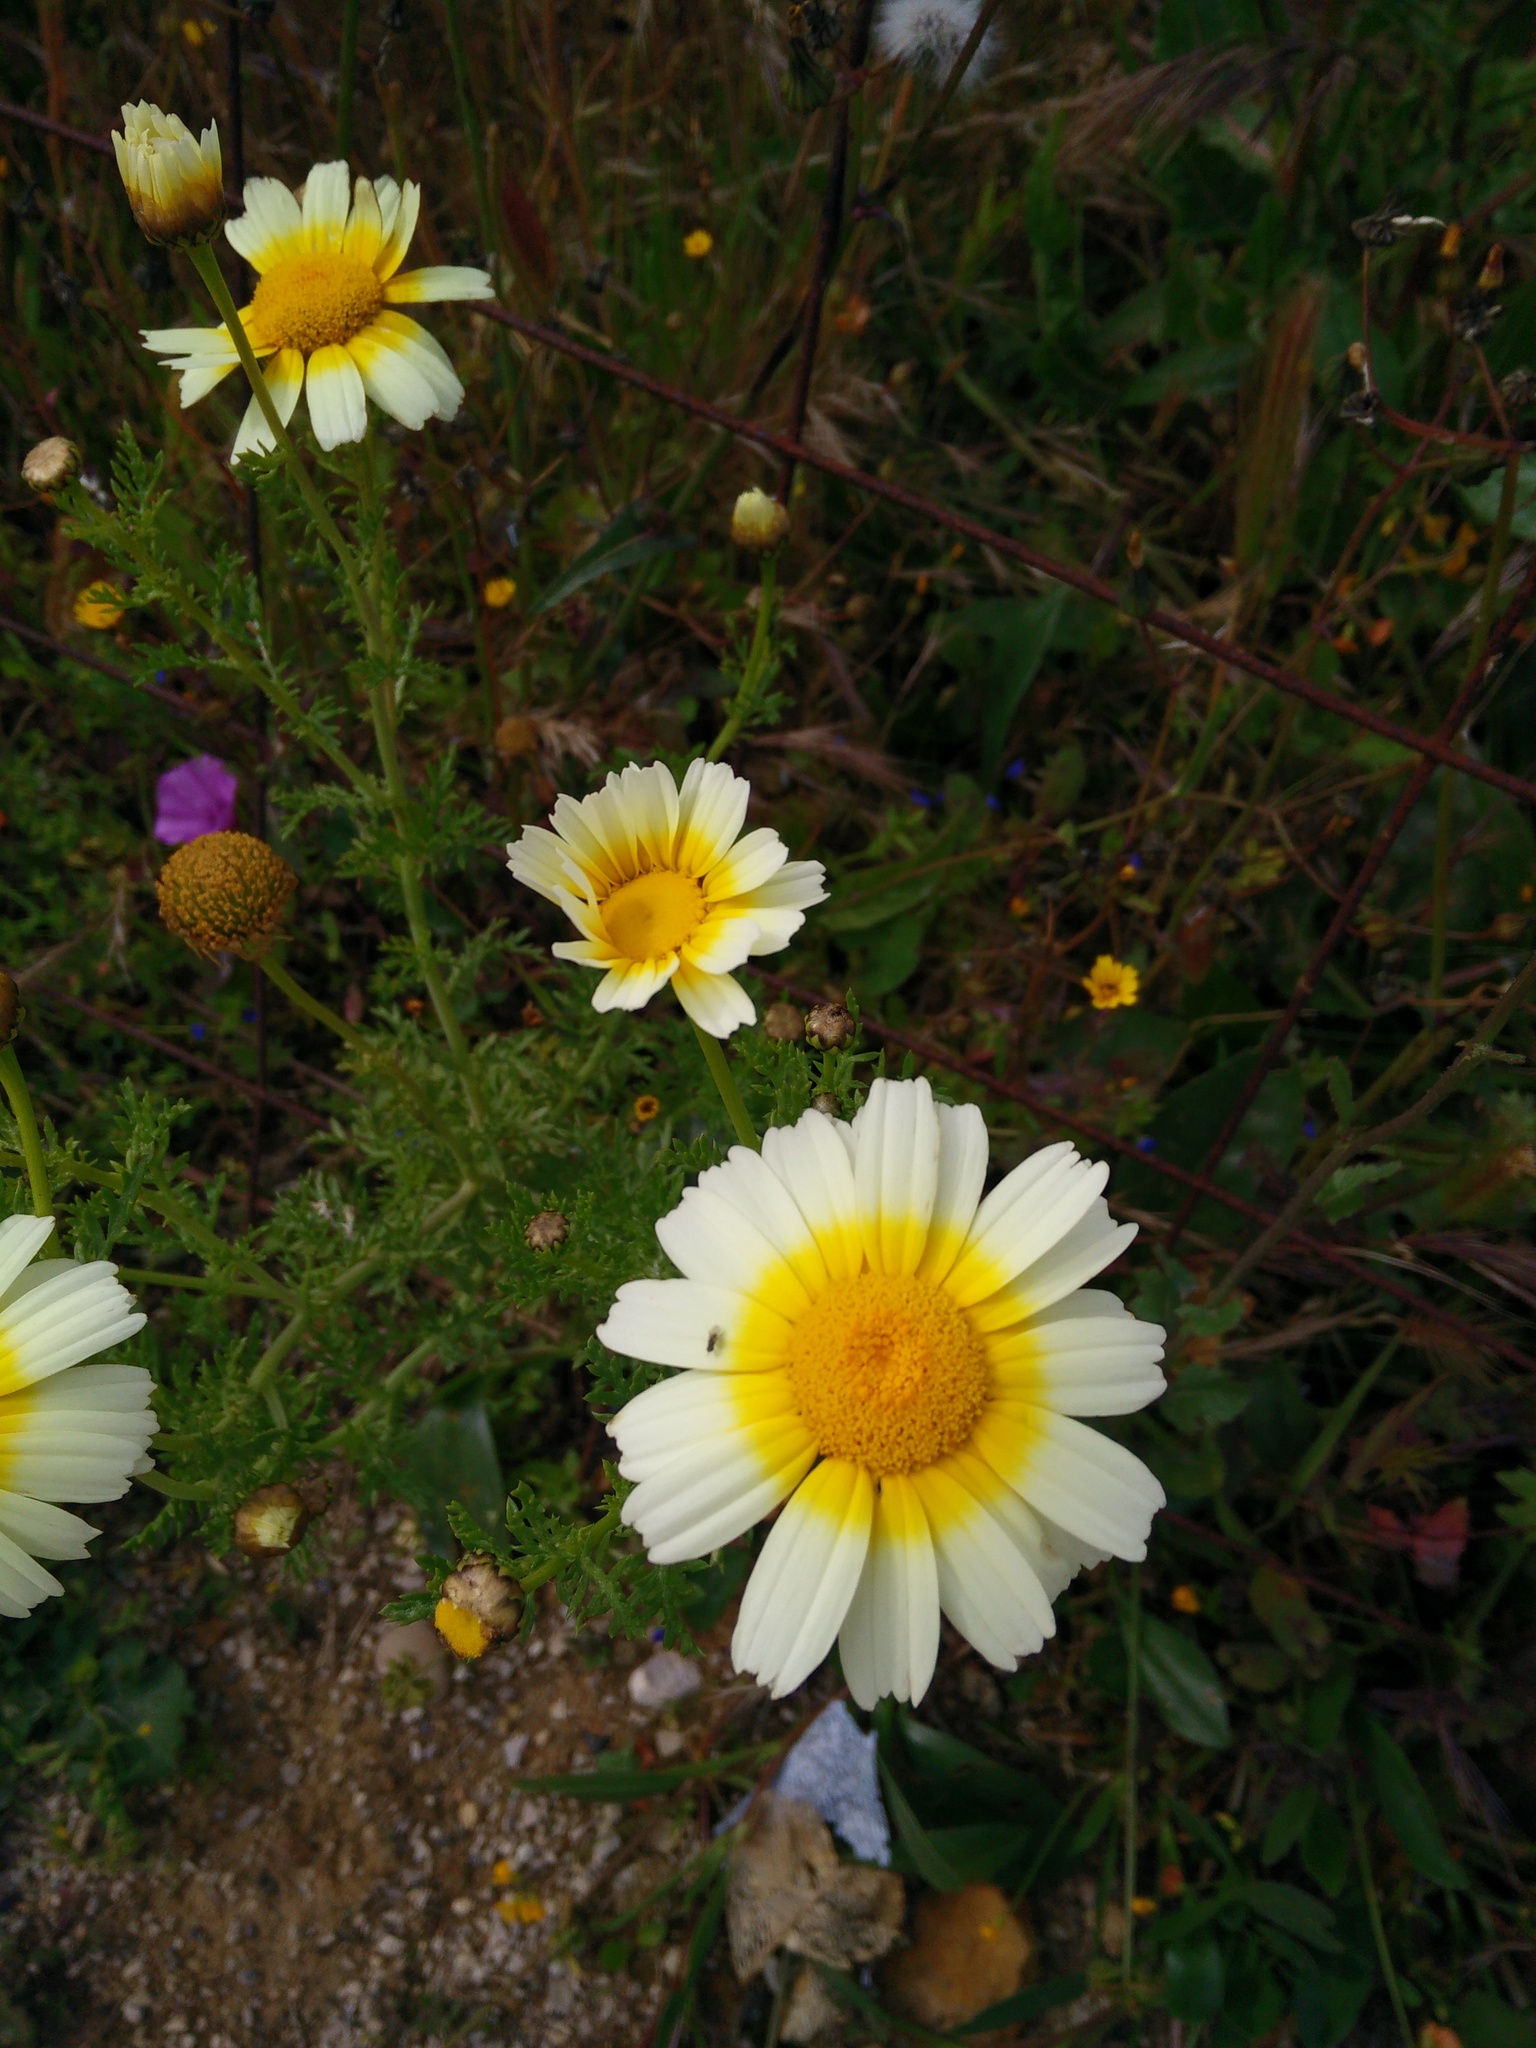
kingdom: Plantae
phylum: Tracheophyta
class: Magnoliopsida
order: Asterales
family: Asteraceae
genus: Glebionis
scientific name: Glebionis coronaria
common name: Crowndaisy
